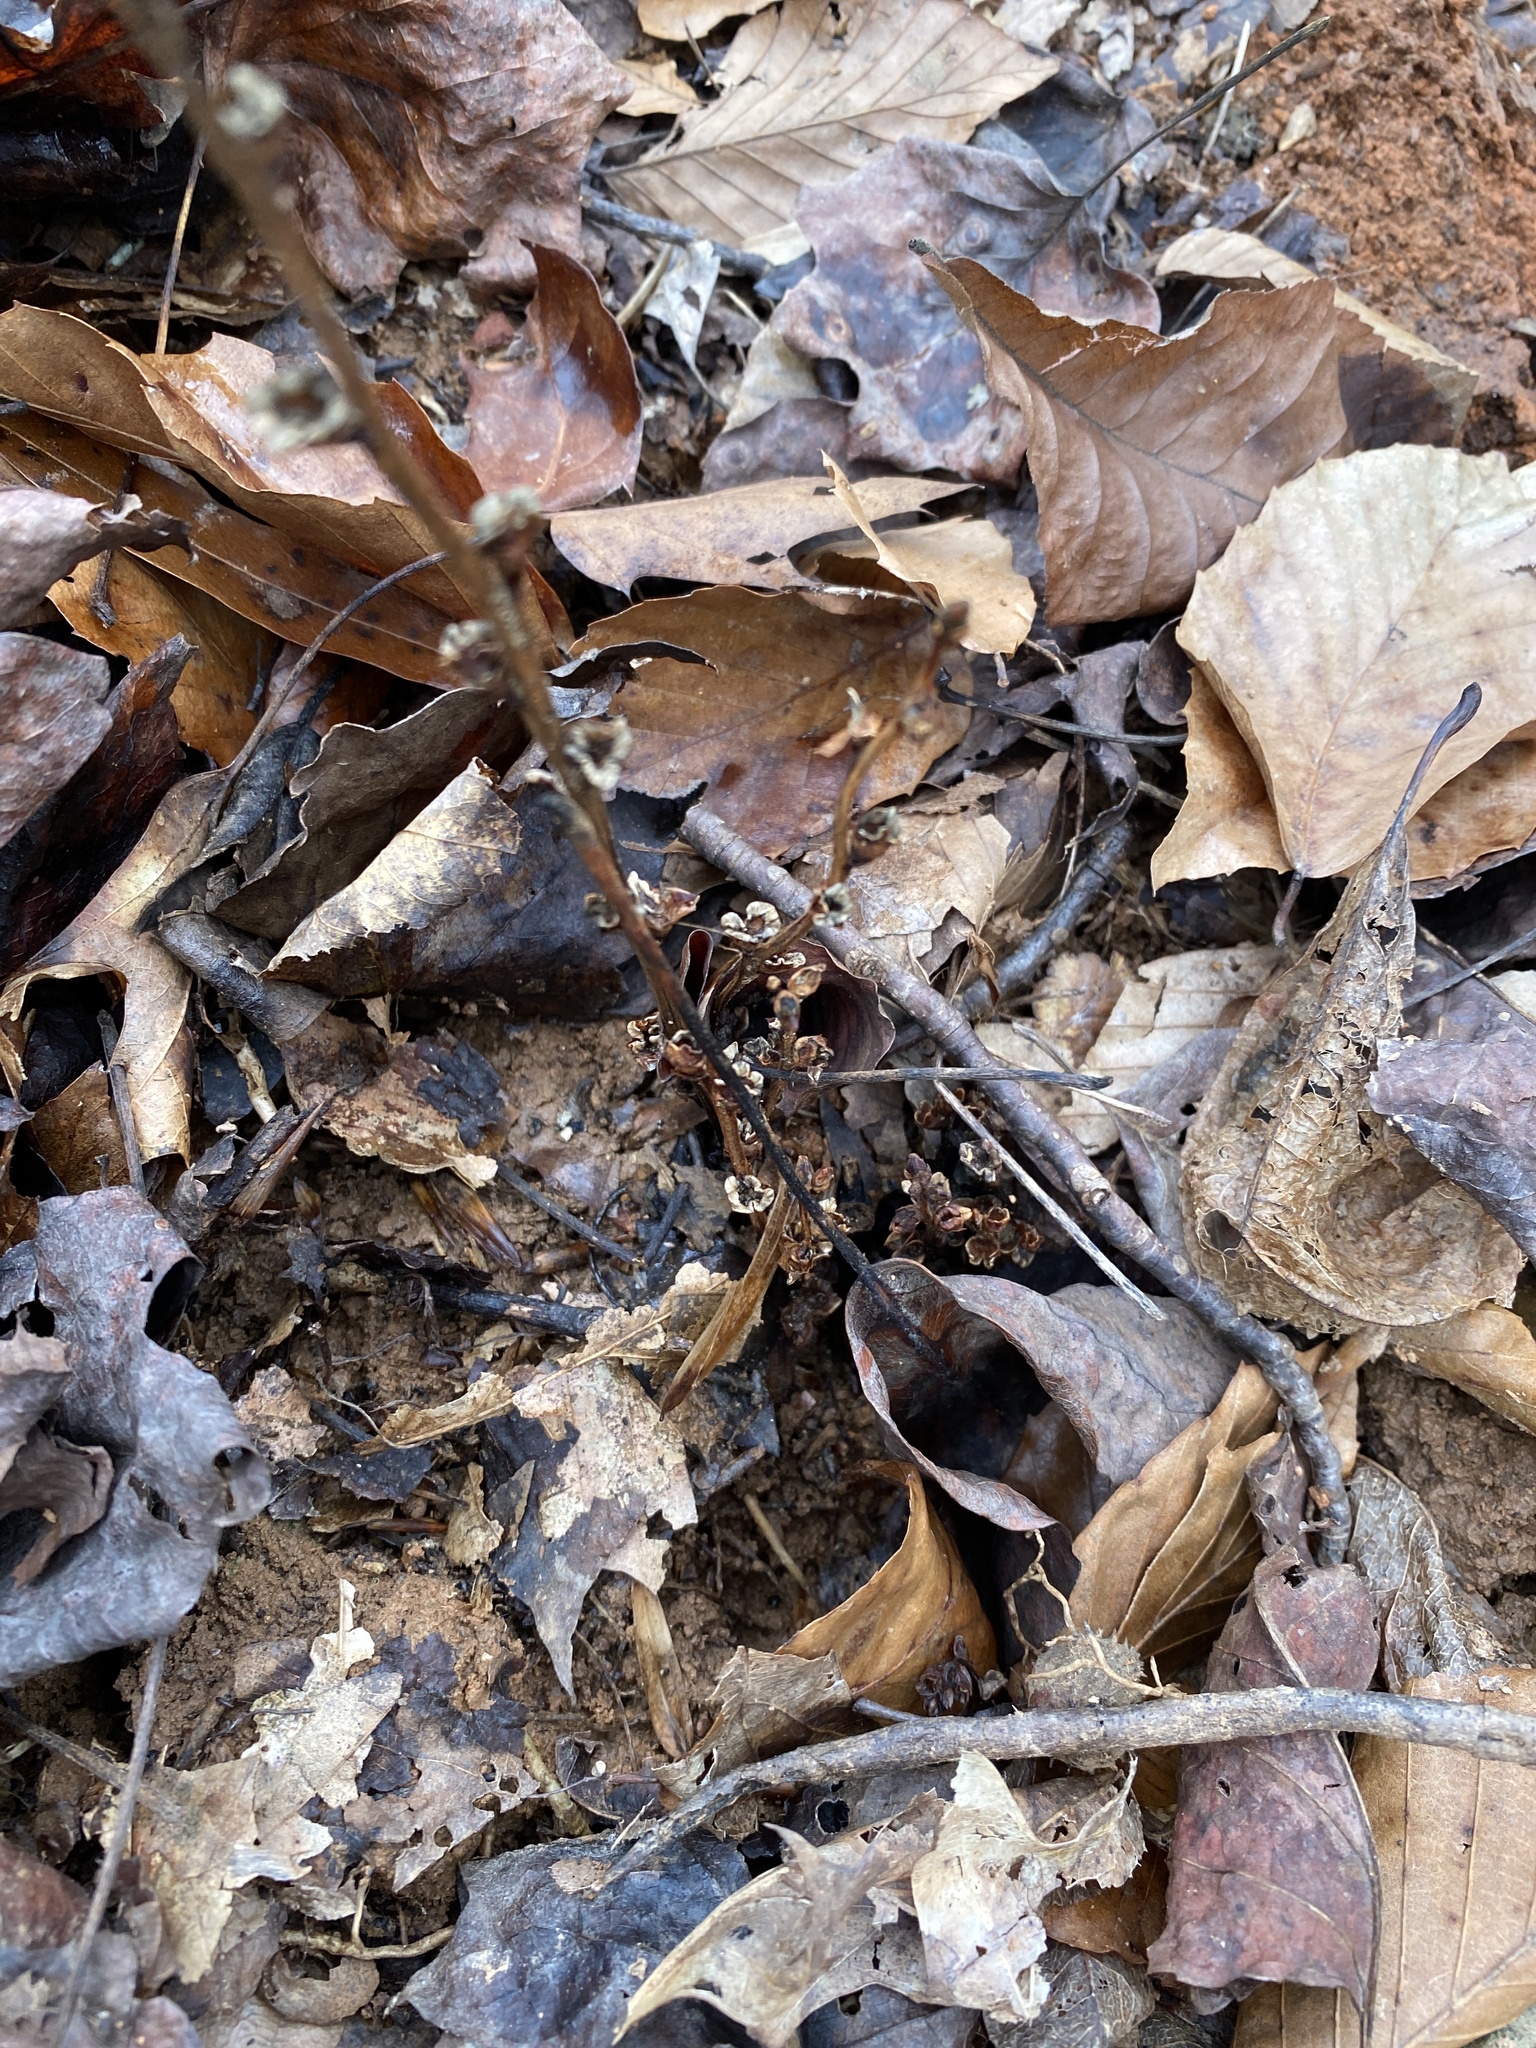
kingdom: Plantae
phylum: Tracheophyta
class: Magnoliopsida
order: Lamiales
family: Orobanchaceae
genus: Epifagus
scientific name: Epifagus virginiana
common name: Beechdrops
